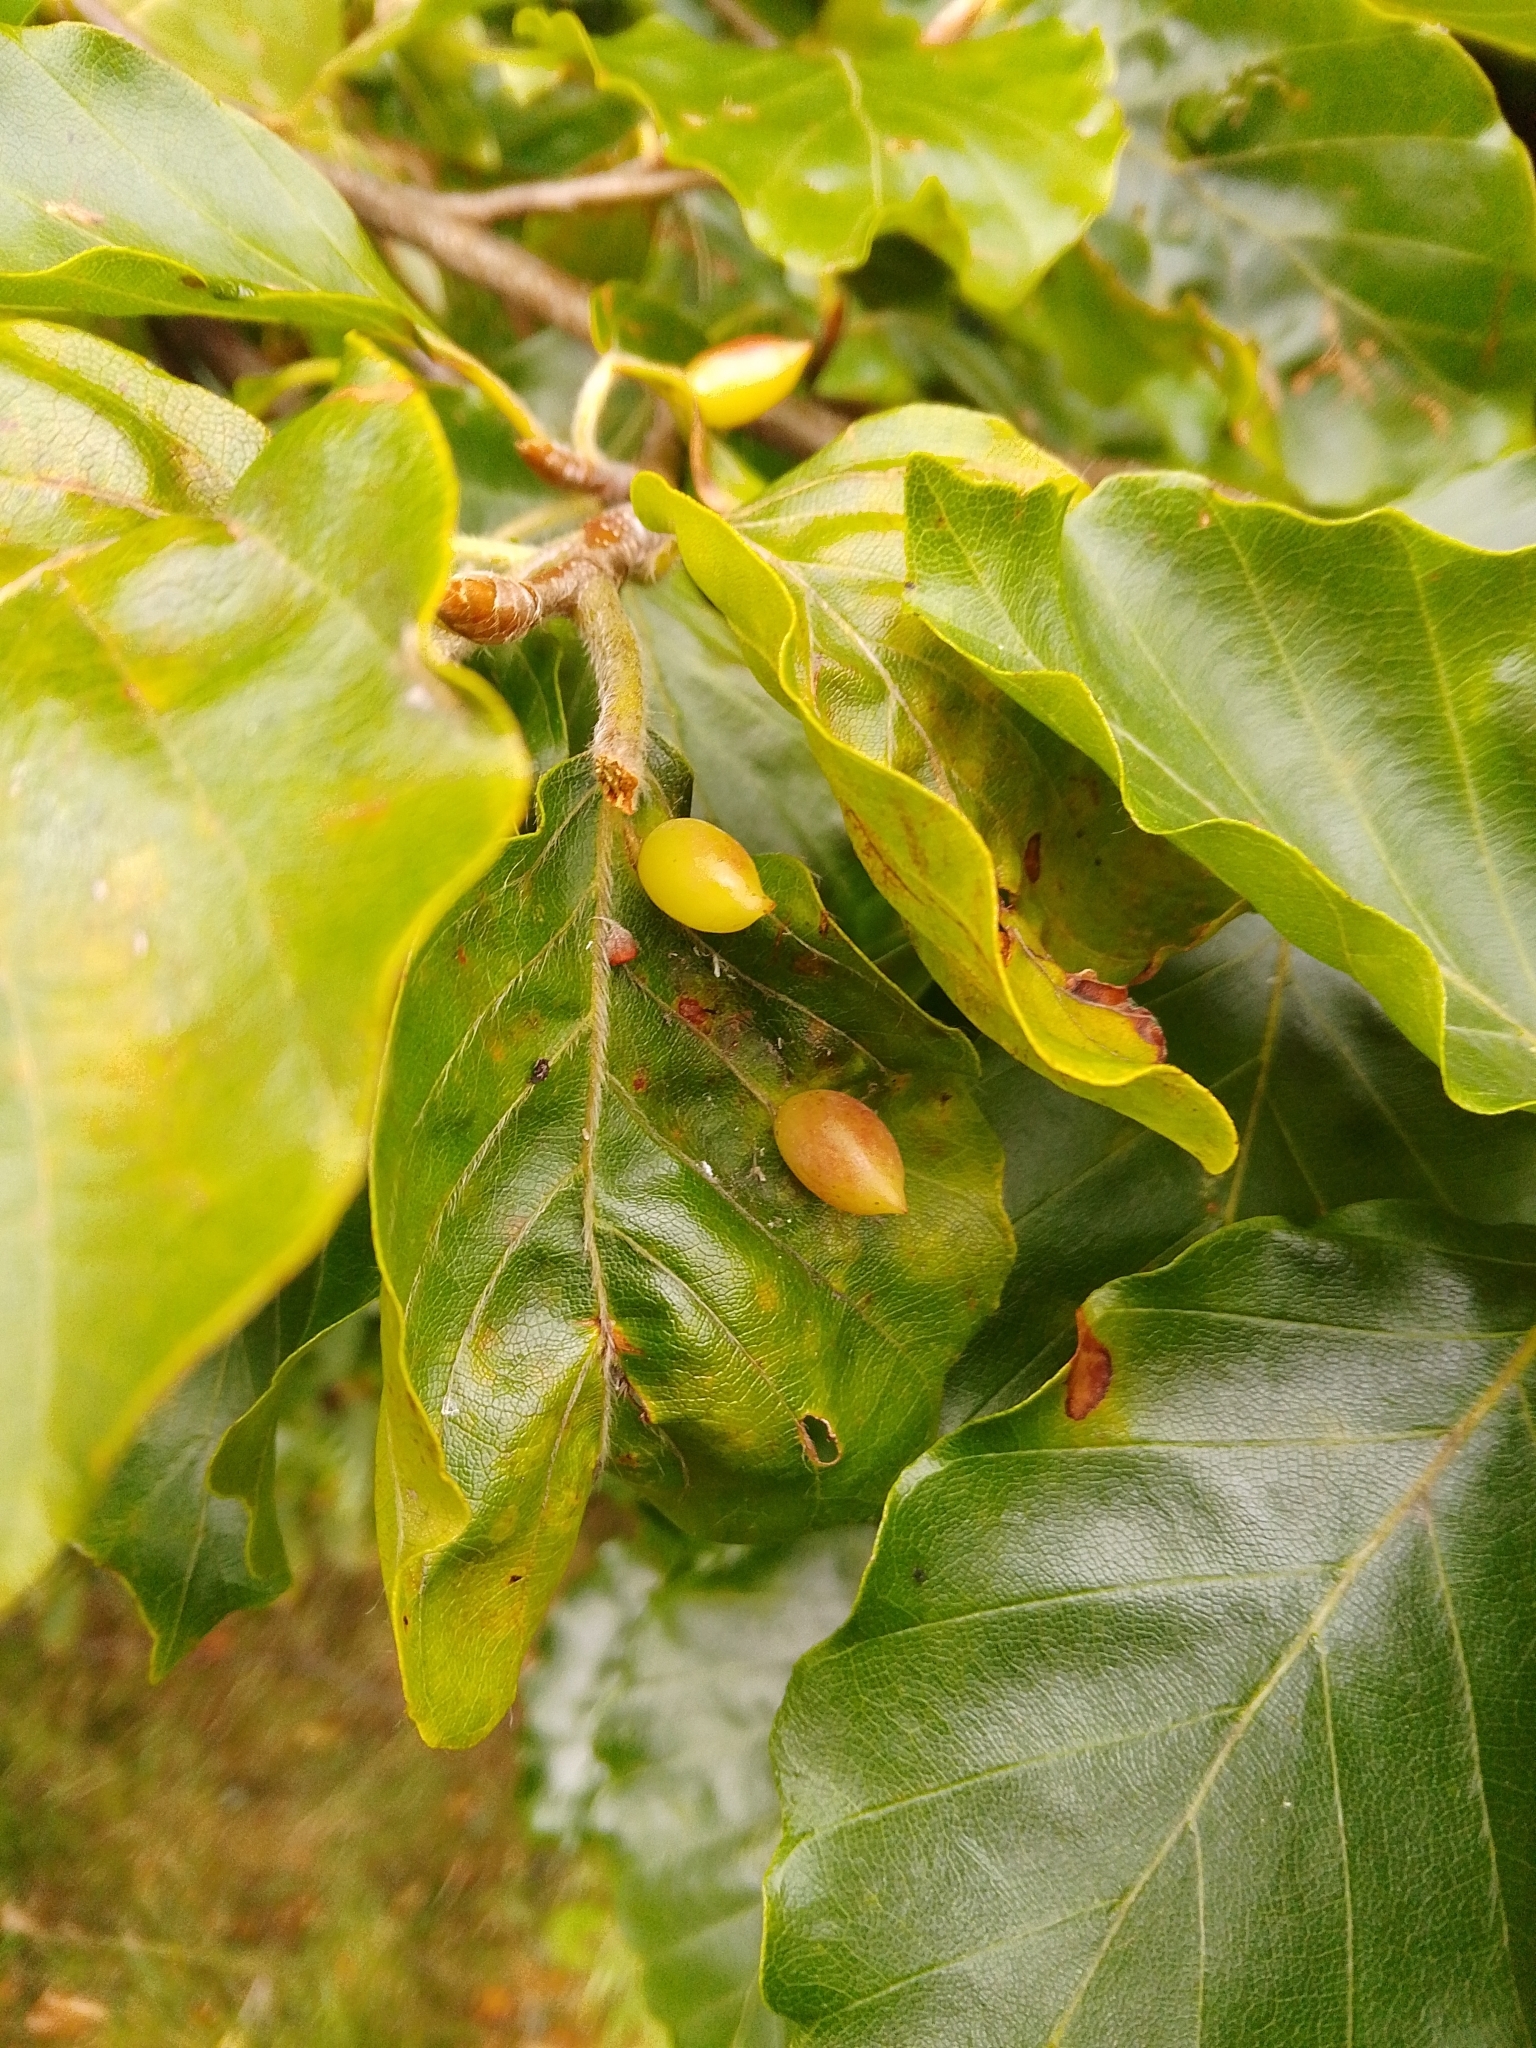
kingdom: Animalia
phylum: Arthropoda
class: Insecta
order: Diptera
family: Cecidomyiidae
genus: Mikiola
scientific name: Mikiola fagi
